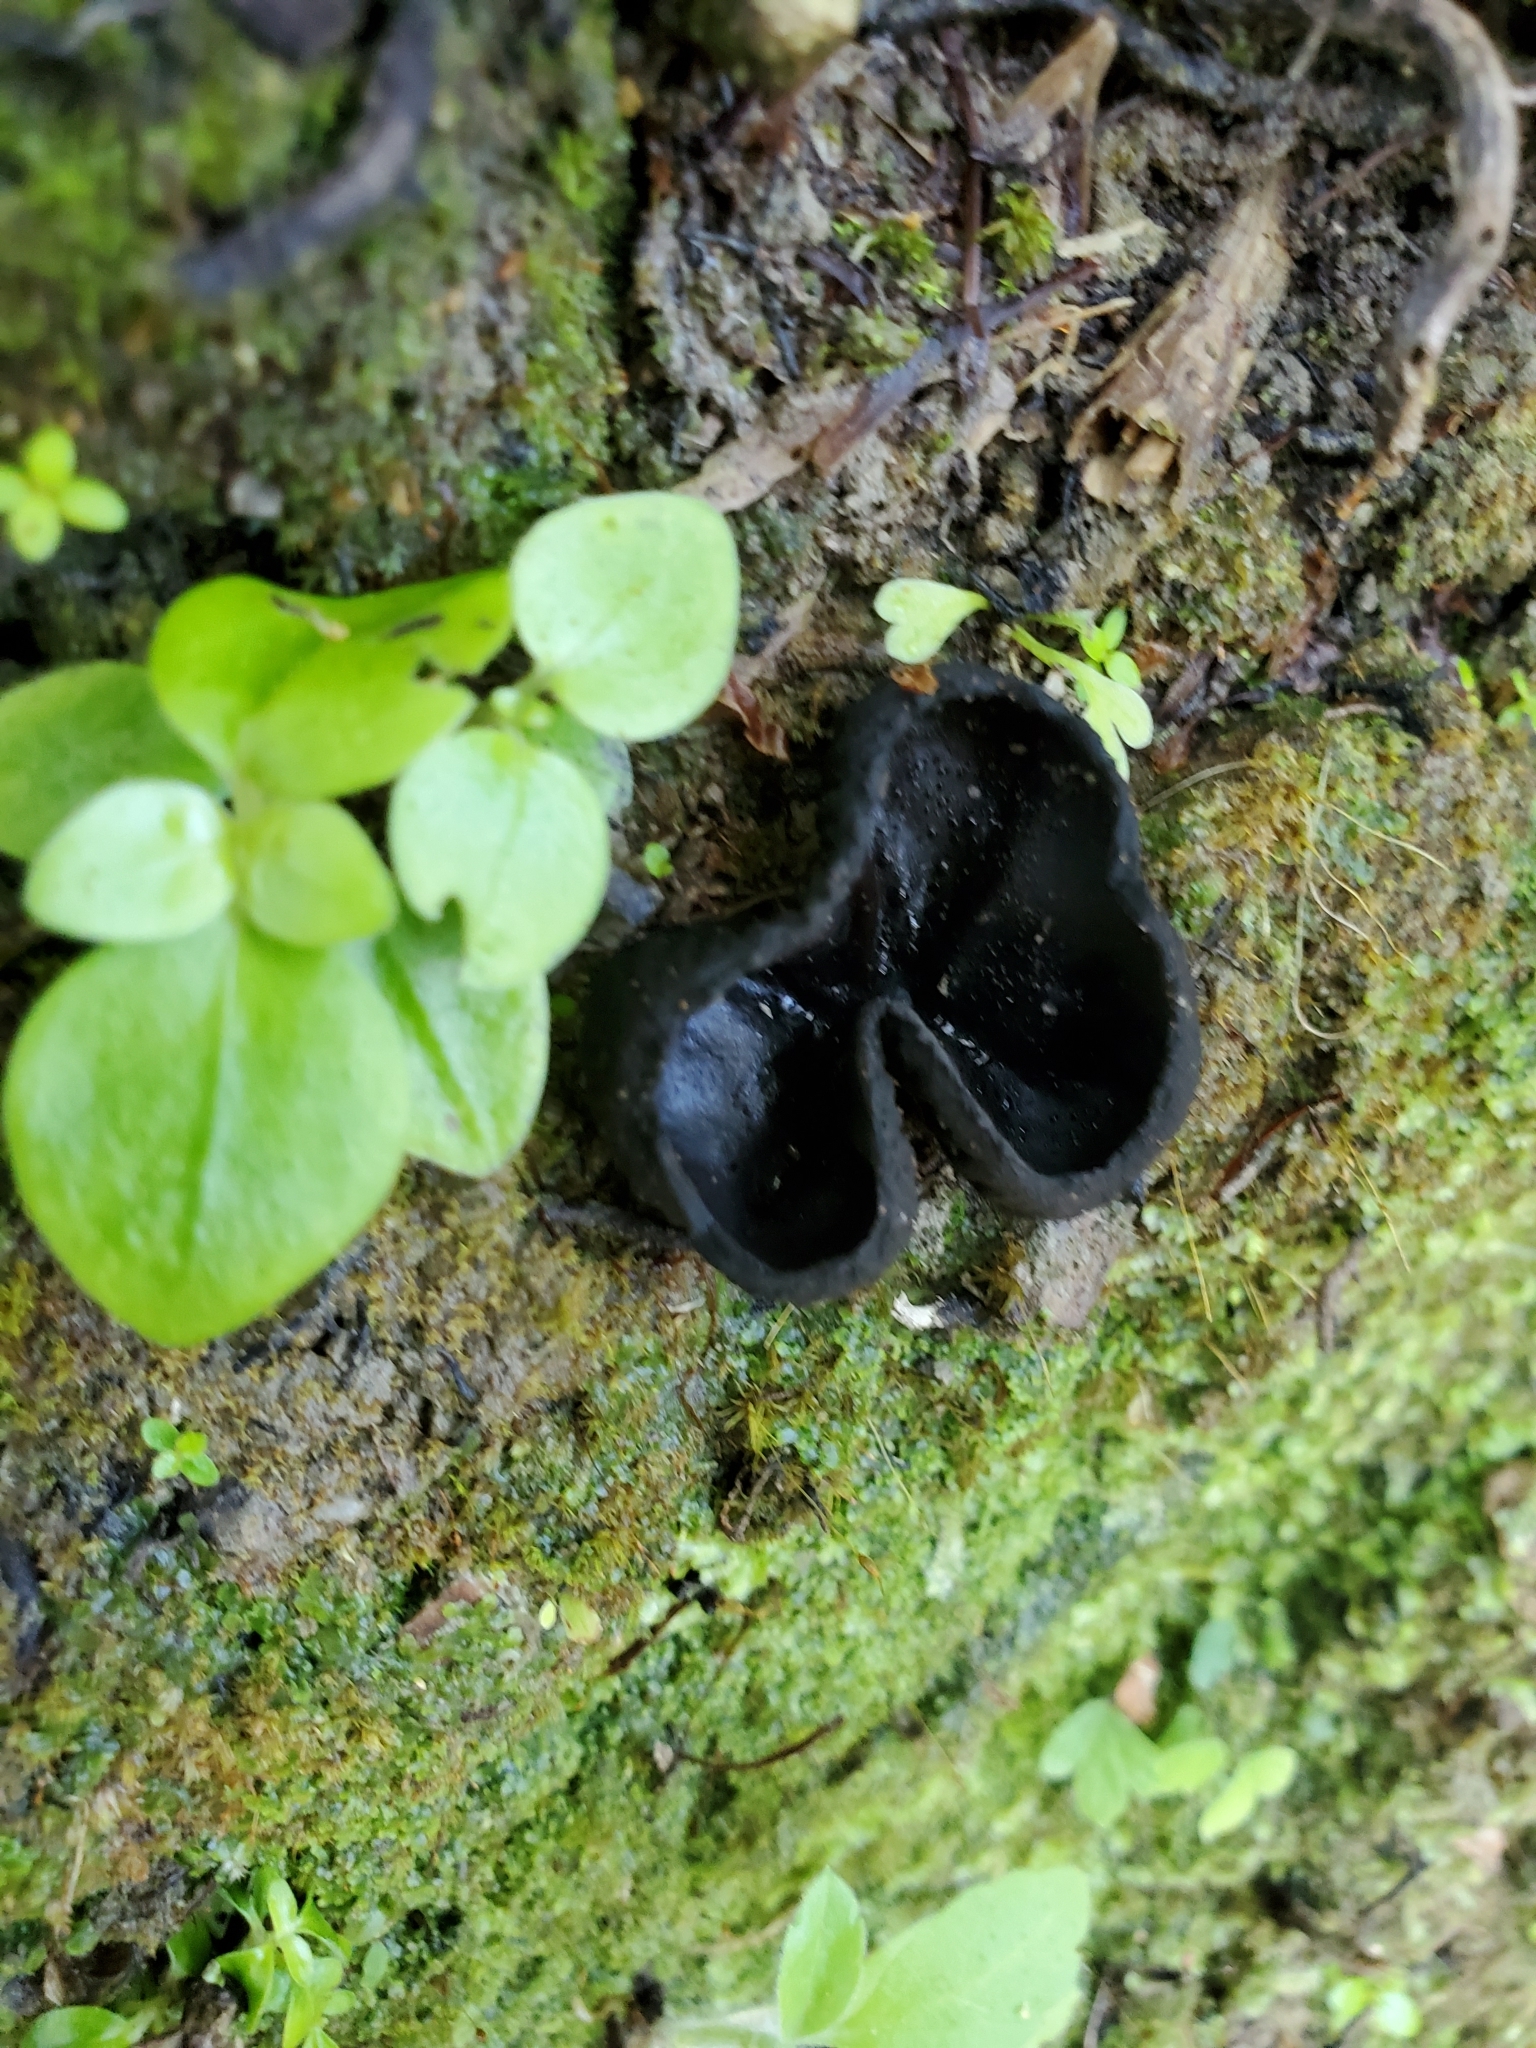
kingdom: Fungi
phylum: Ascomycota
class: Pezizomycetes
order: Pezizales
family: Sarcosomataceae
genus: Plectania
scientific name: Plectania rhytidia
